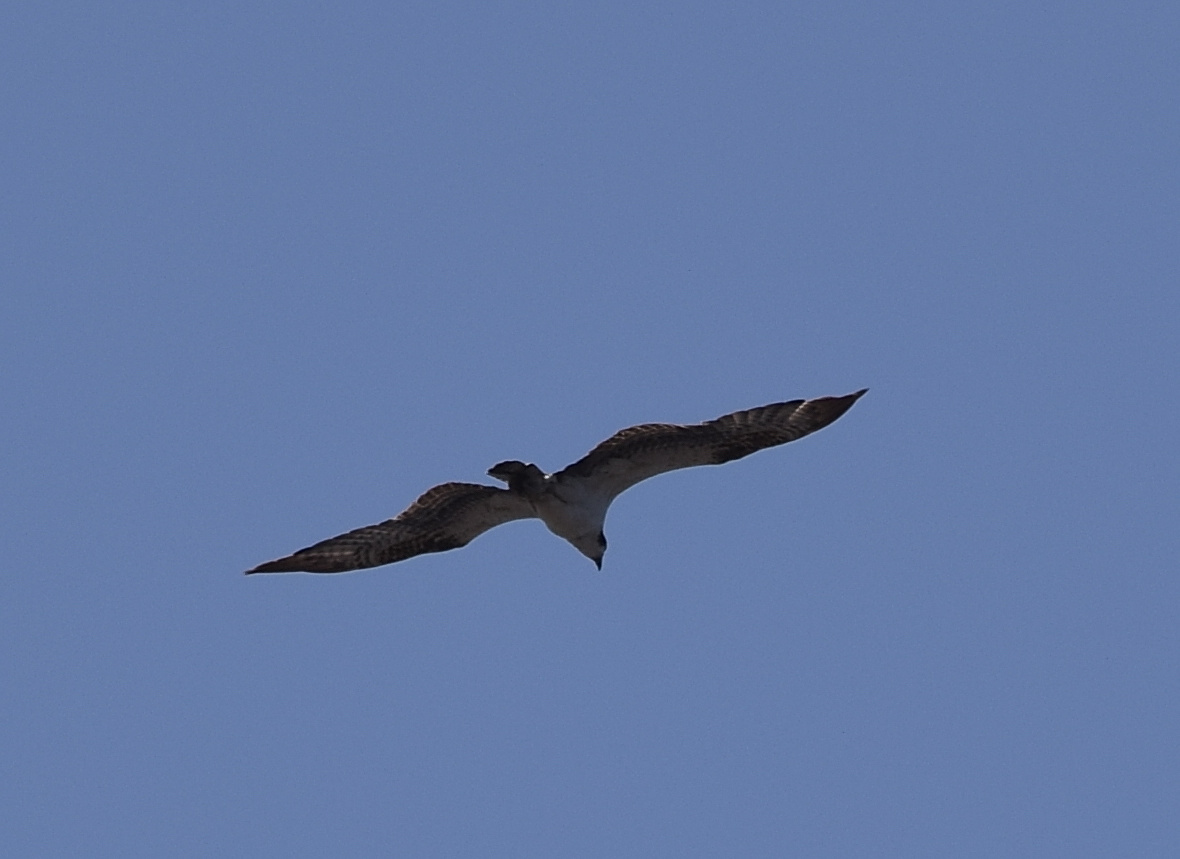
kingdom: Animalia
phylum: Chordata
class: Aves
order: Accipitriformes
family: Pandionidae
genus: Pandion
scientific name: Pandion haliaetus
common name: Osprey
